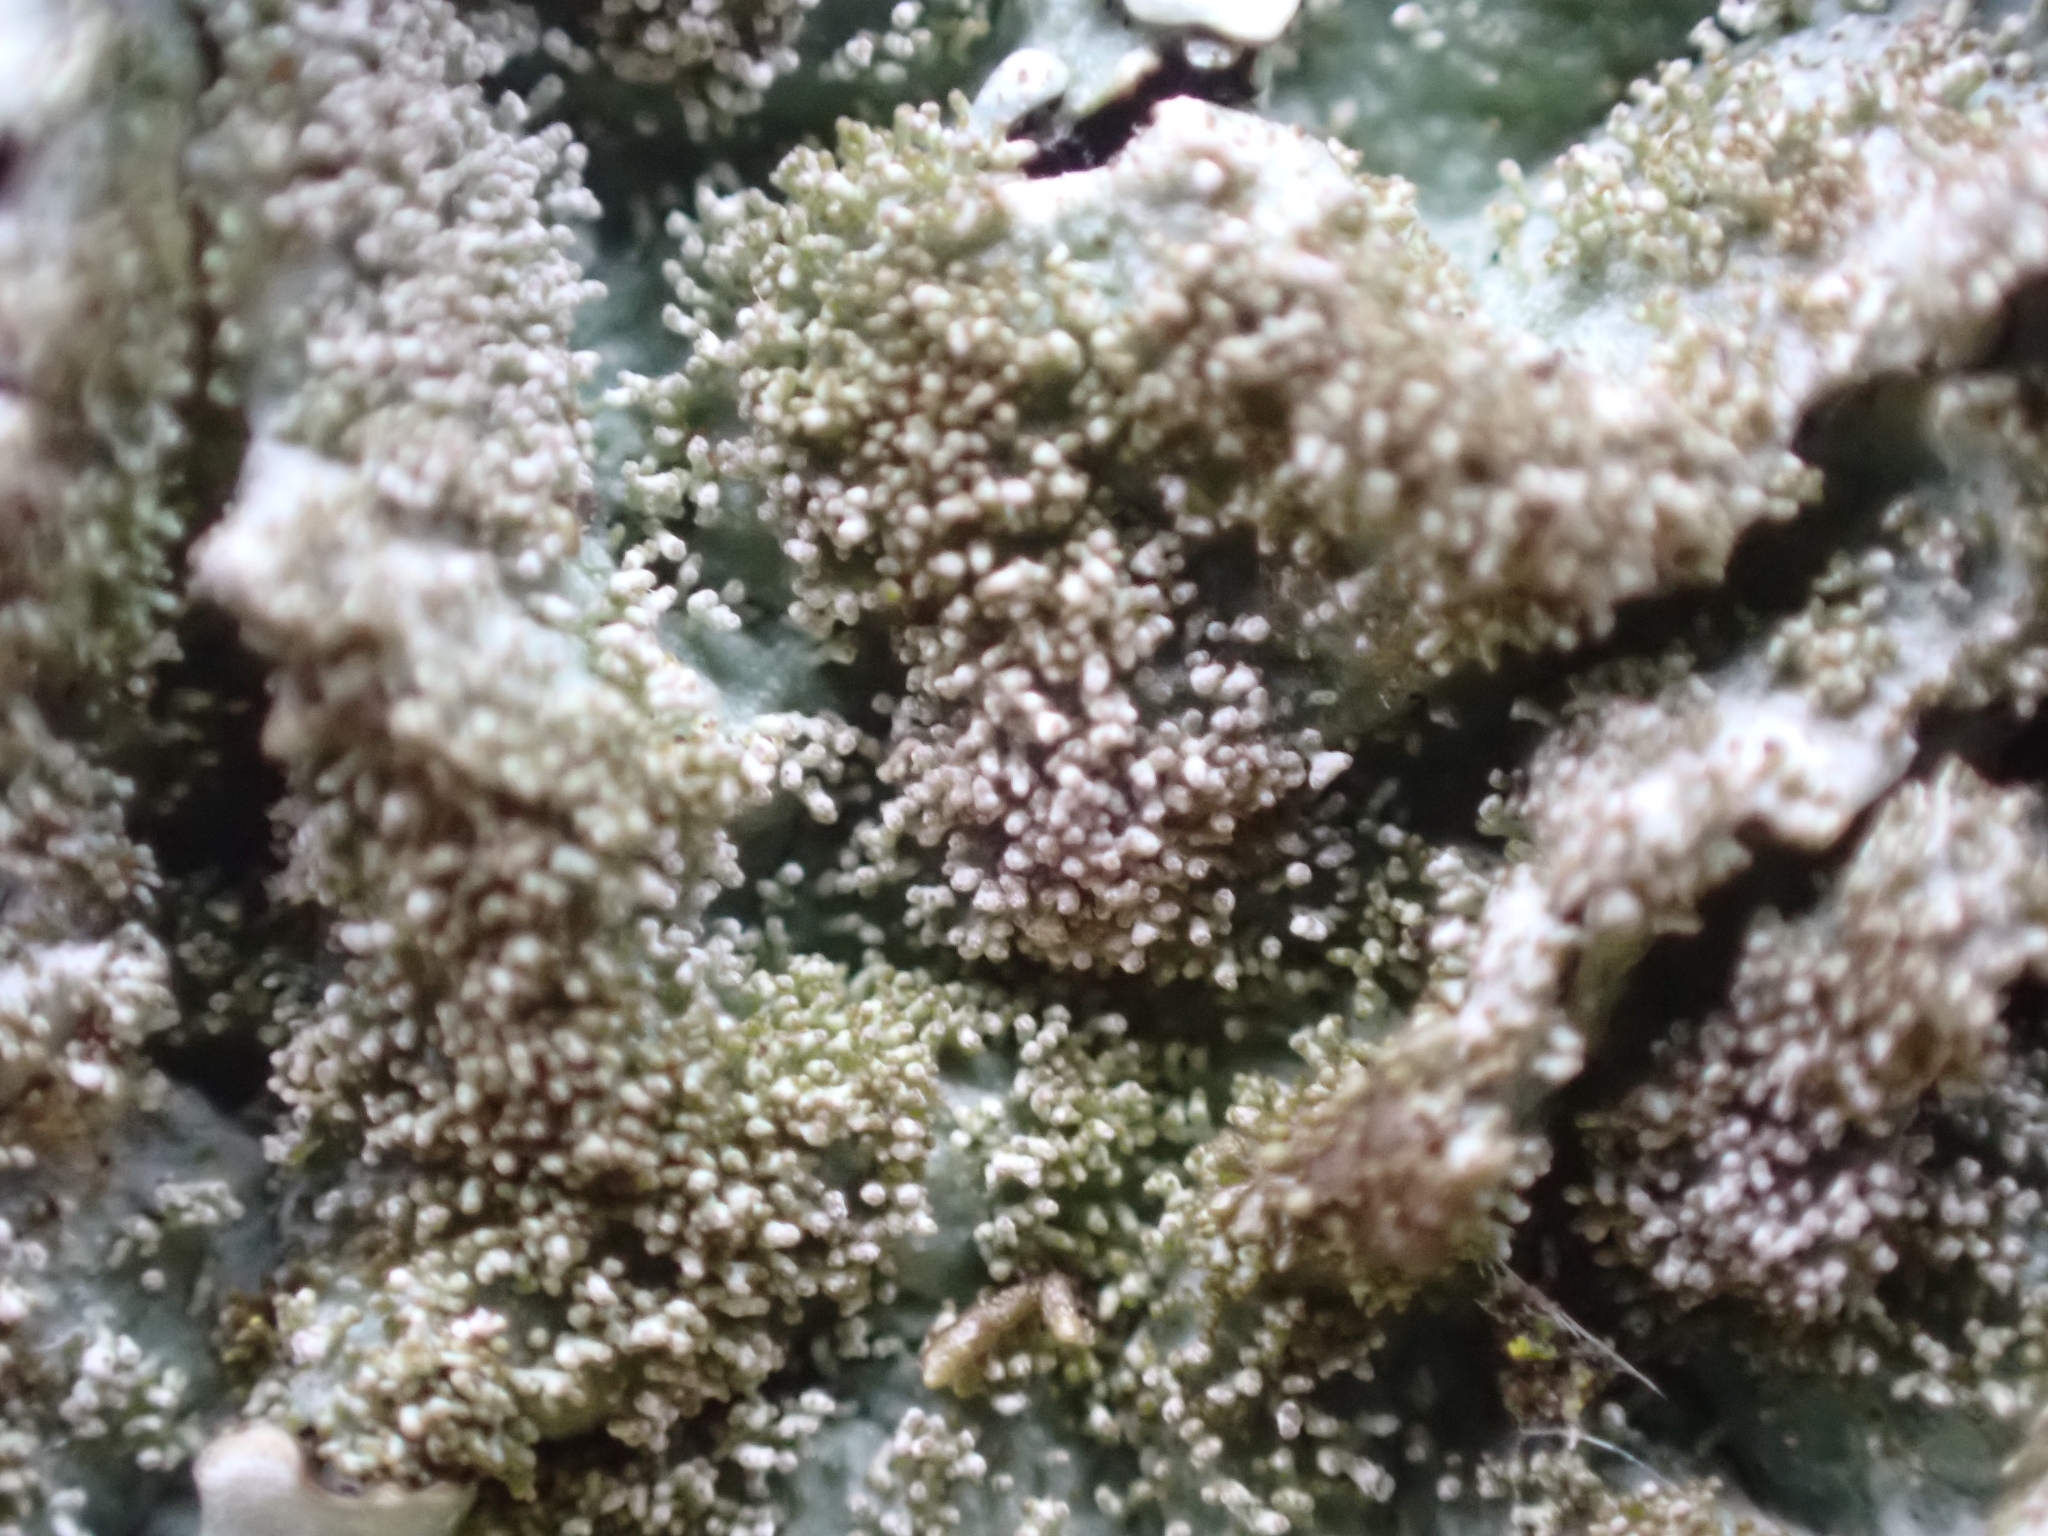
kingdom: Fungi
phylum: Ascomycota
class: Lecanoromycetes
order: Lecanorales
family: Parmeliaceae
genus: Parmelina
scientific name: Parmelina tiliacea
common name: Linden shield lichen
